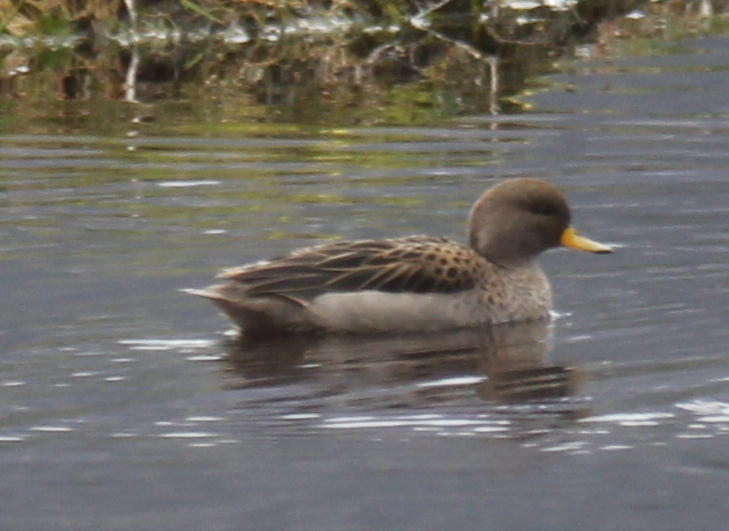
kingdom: Animalia
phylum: Chordata
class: Aves
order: Anseriformes
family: Anatidae
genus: Anas
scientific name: Anas flavirostris
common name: Yellow-billed teal
